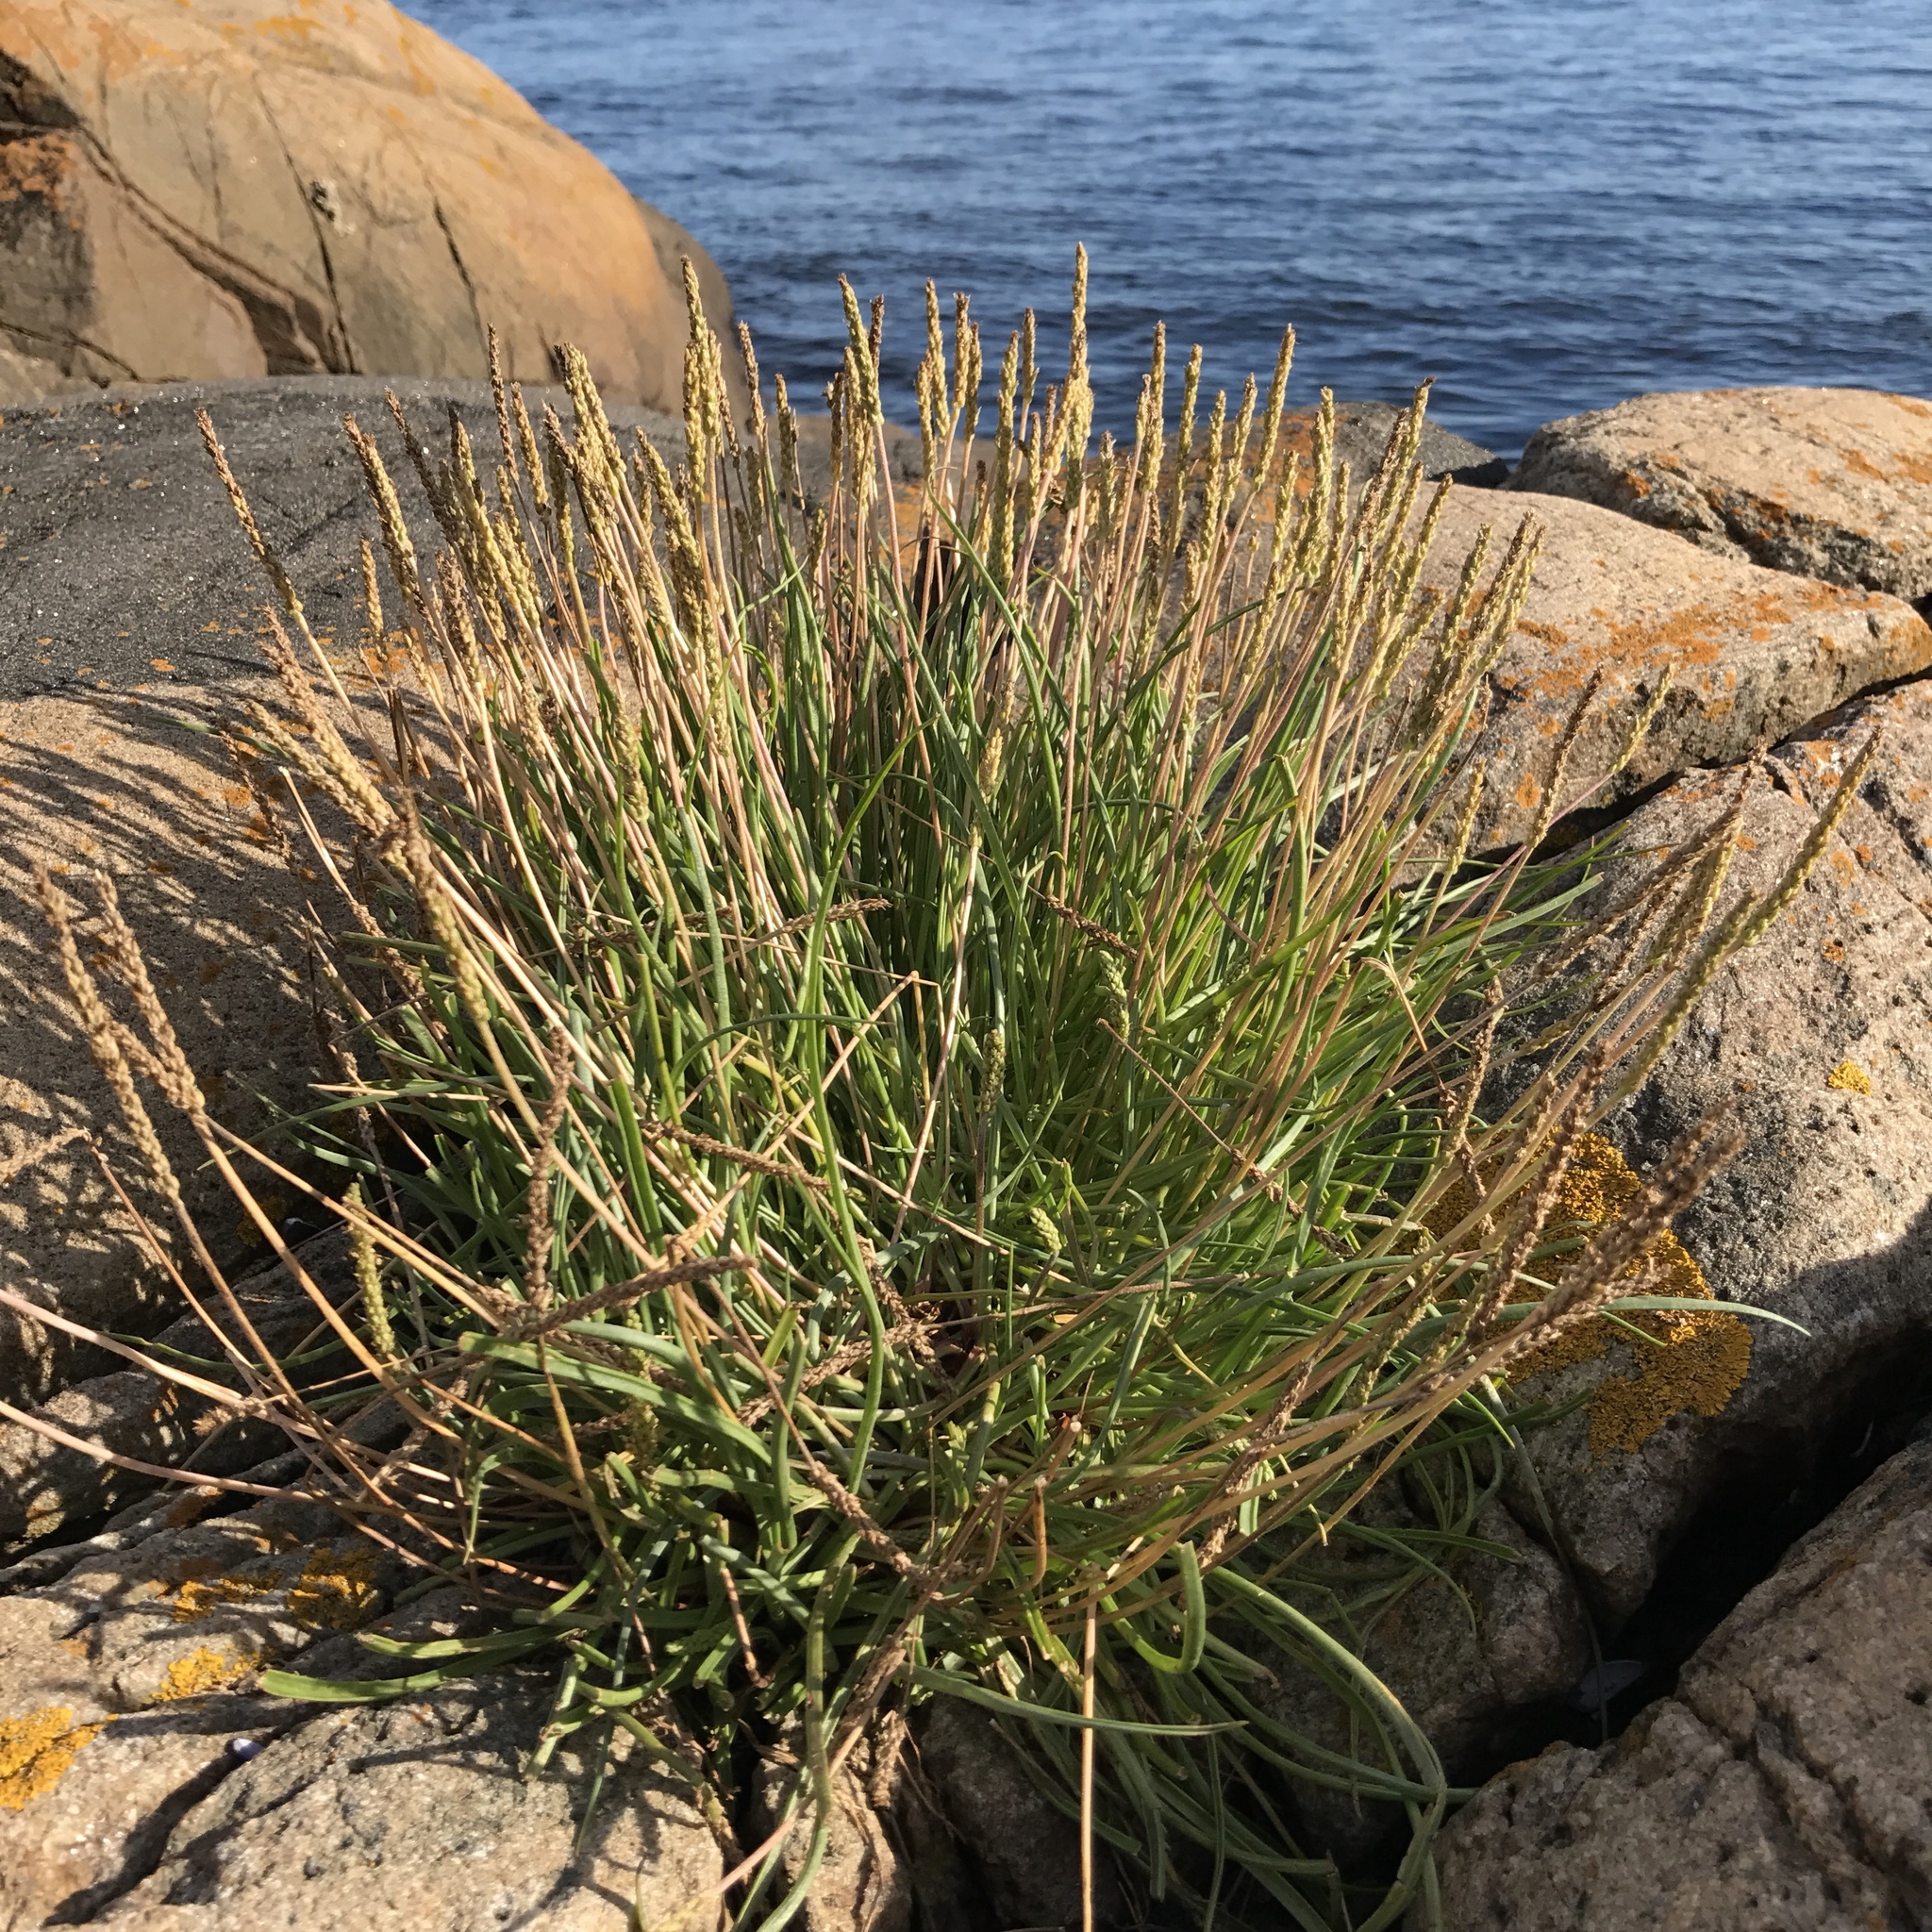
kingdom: Plantae
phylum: Tracheophyta
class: Magnoliopsida
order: Lamiales
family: Plantaginaceae
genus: Plantago
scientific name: Plantago maritima
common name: Sea plantain
